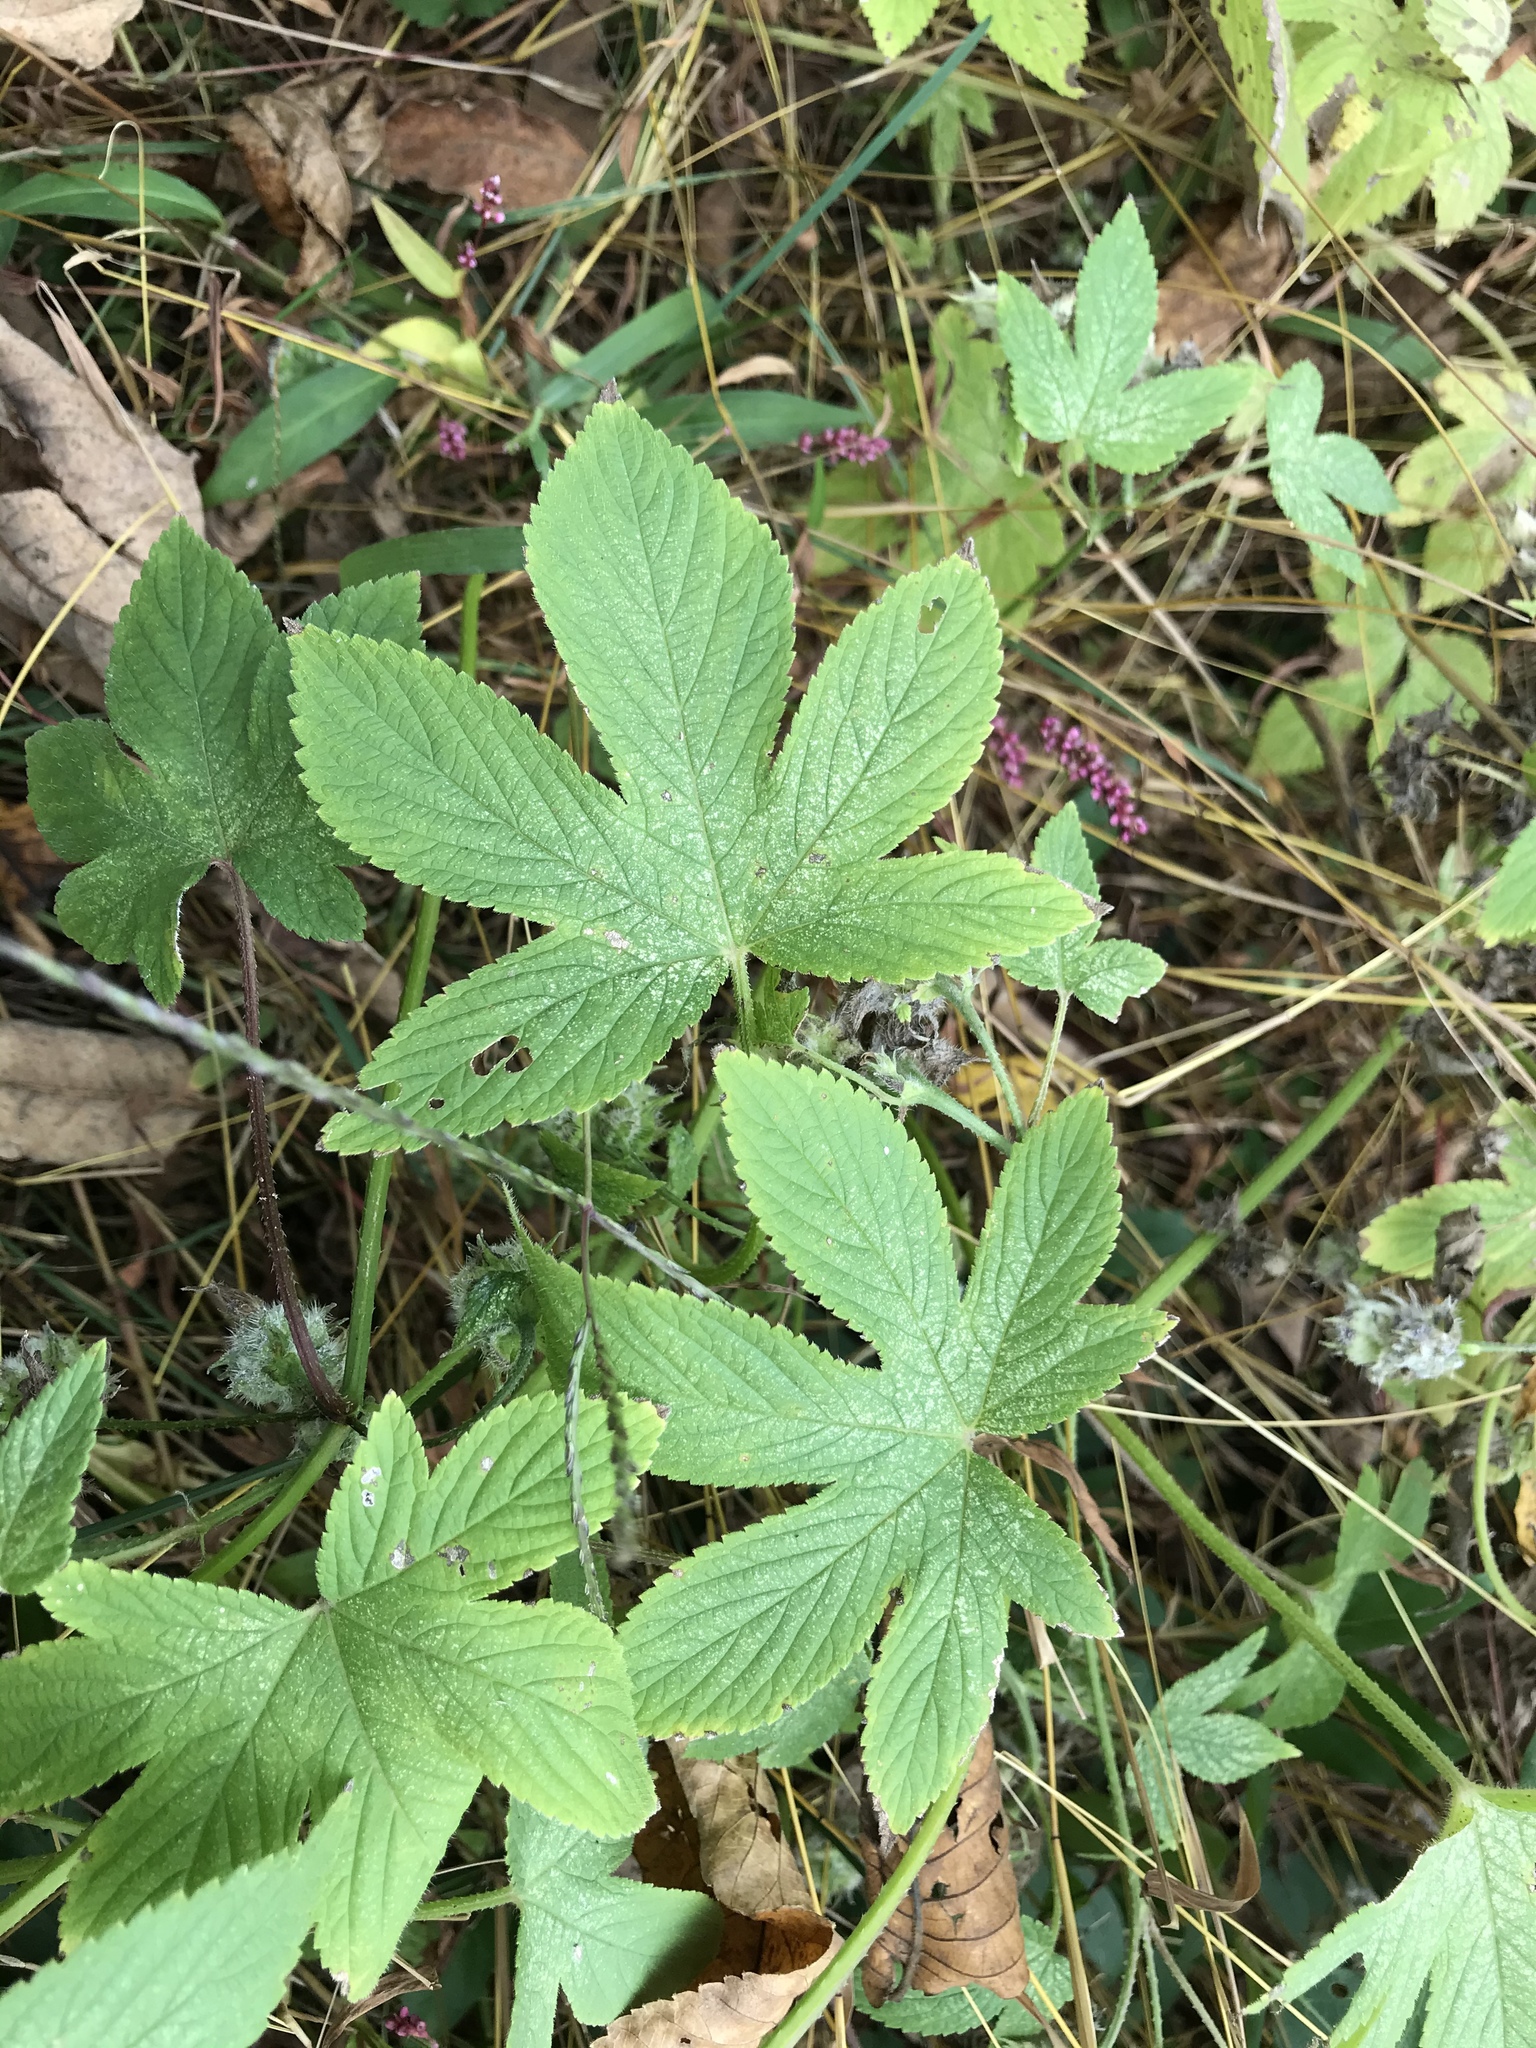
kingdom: Plantae
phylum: Tracheophyta
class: Magnoliopsida
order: Rosales
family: Cannabaceae
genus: Humulus
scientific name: Humulus scandens
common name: Japanese hop
